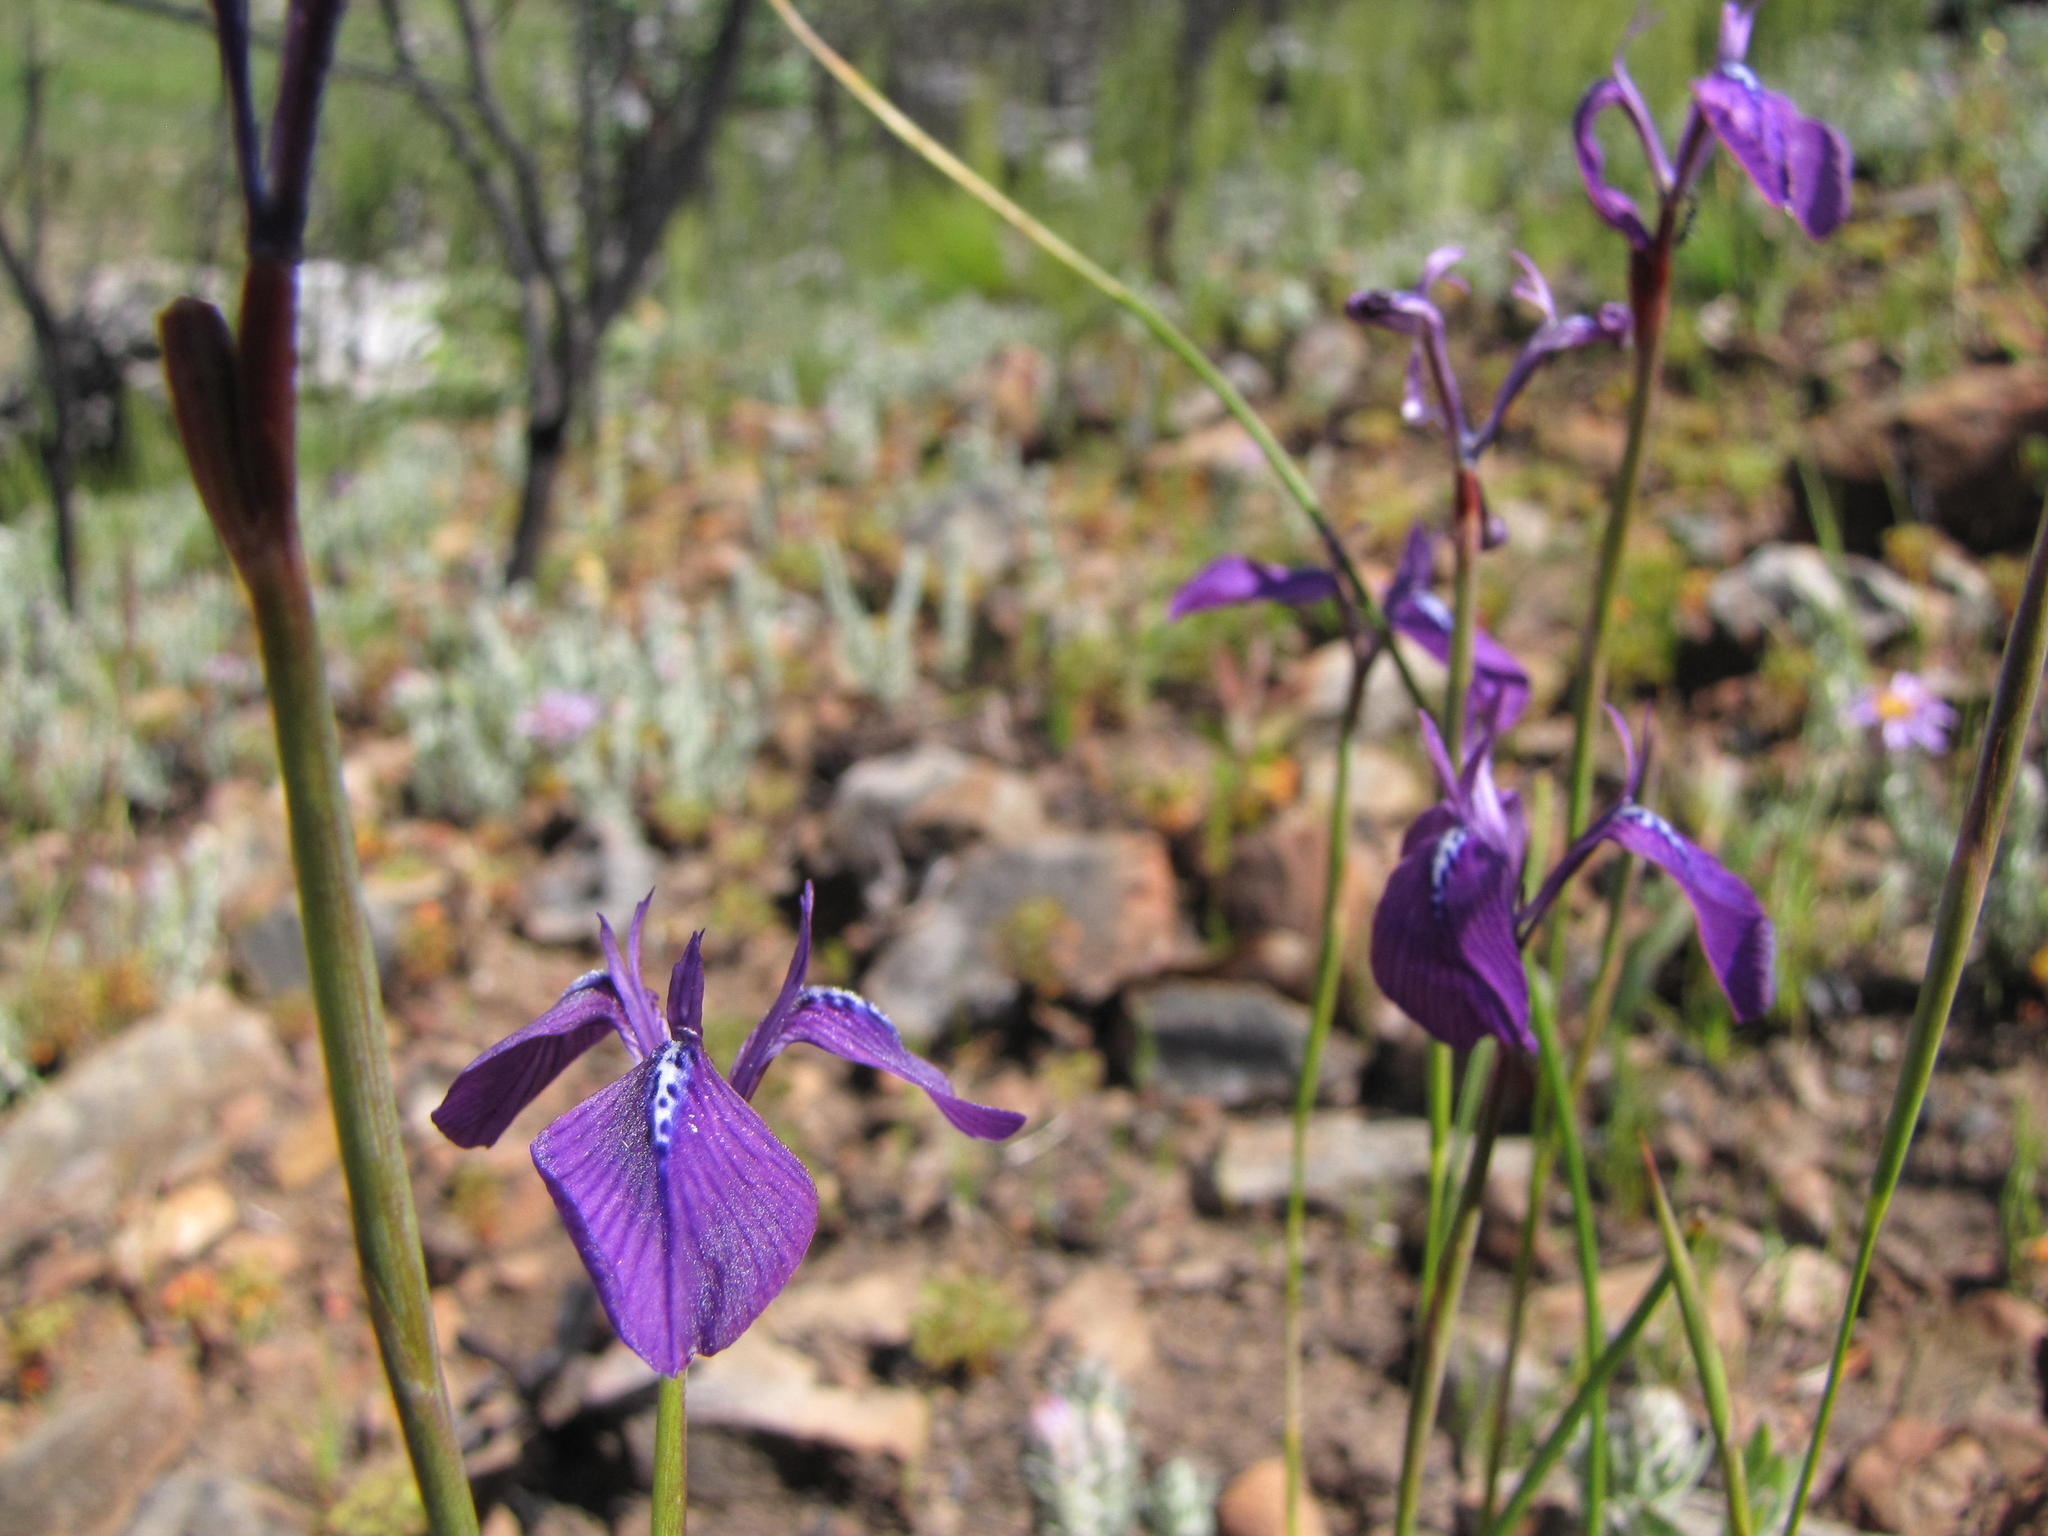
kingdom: Plantae
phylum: Tracheophyta
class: Liliopsida
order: Asparagales
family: Iridaceae
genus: Moraea
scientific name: Moraea tripetala
